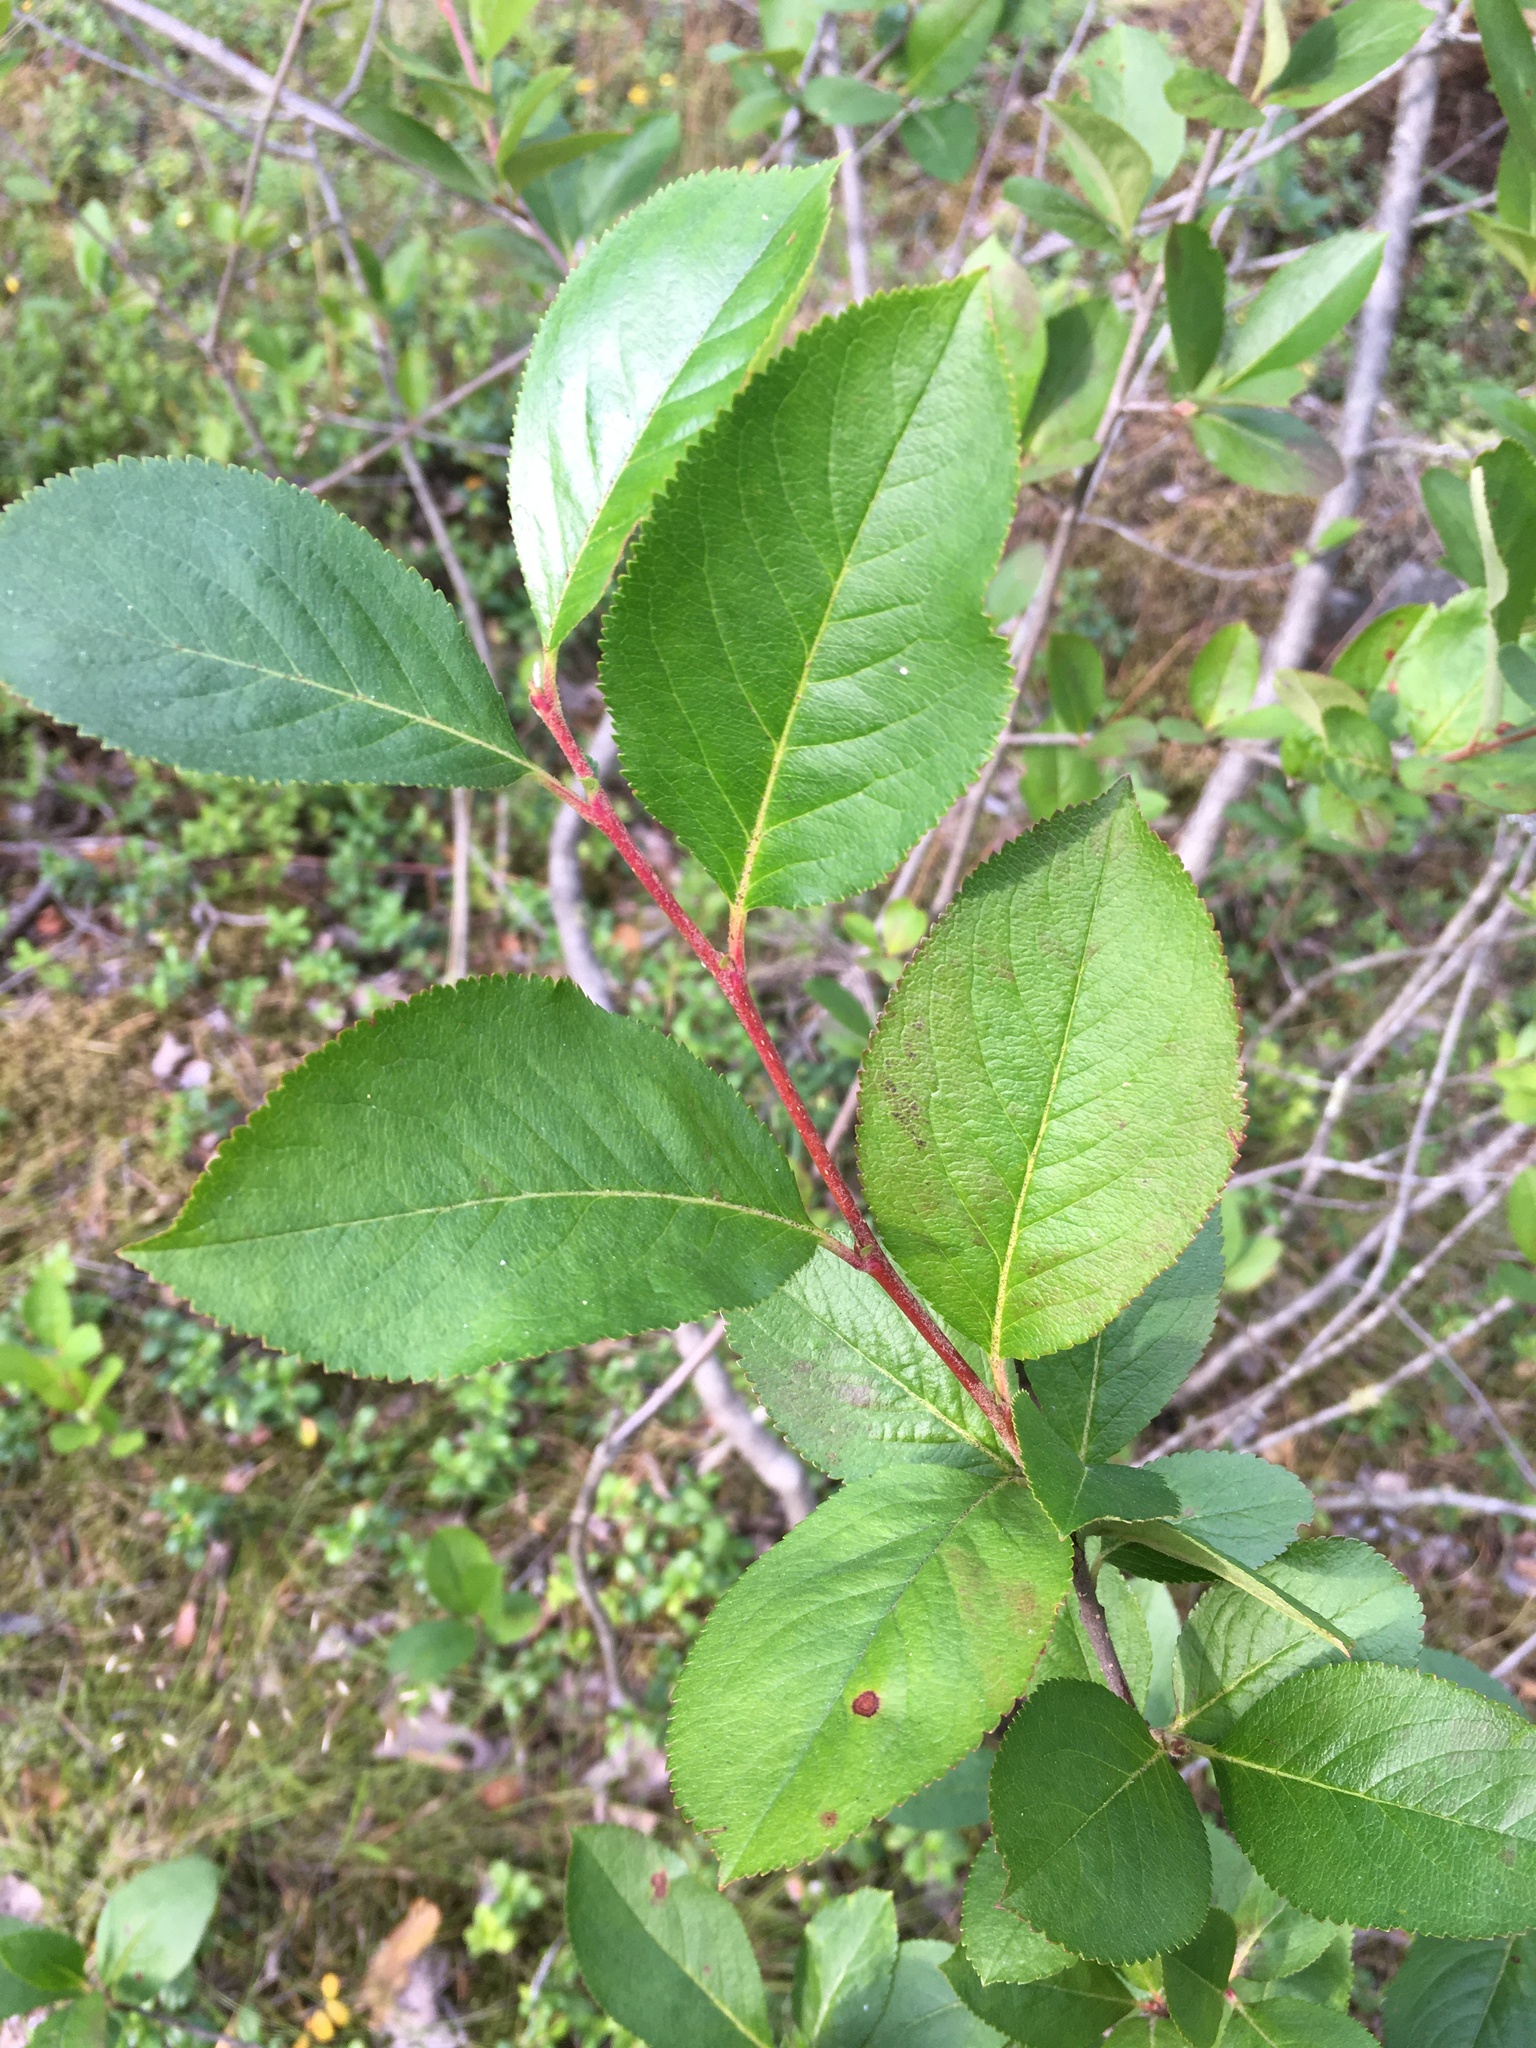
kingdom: Plantae
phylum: Tracheophyta
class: Magnoliopsida
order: Rosales
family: Rosaceae
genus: Sorbaronia
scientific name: Sorbaronia arsenii
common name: Arsène's mountain-ash
